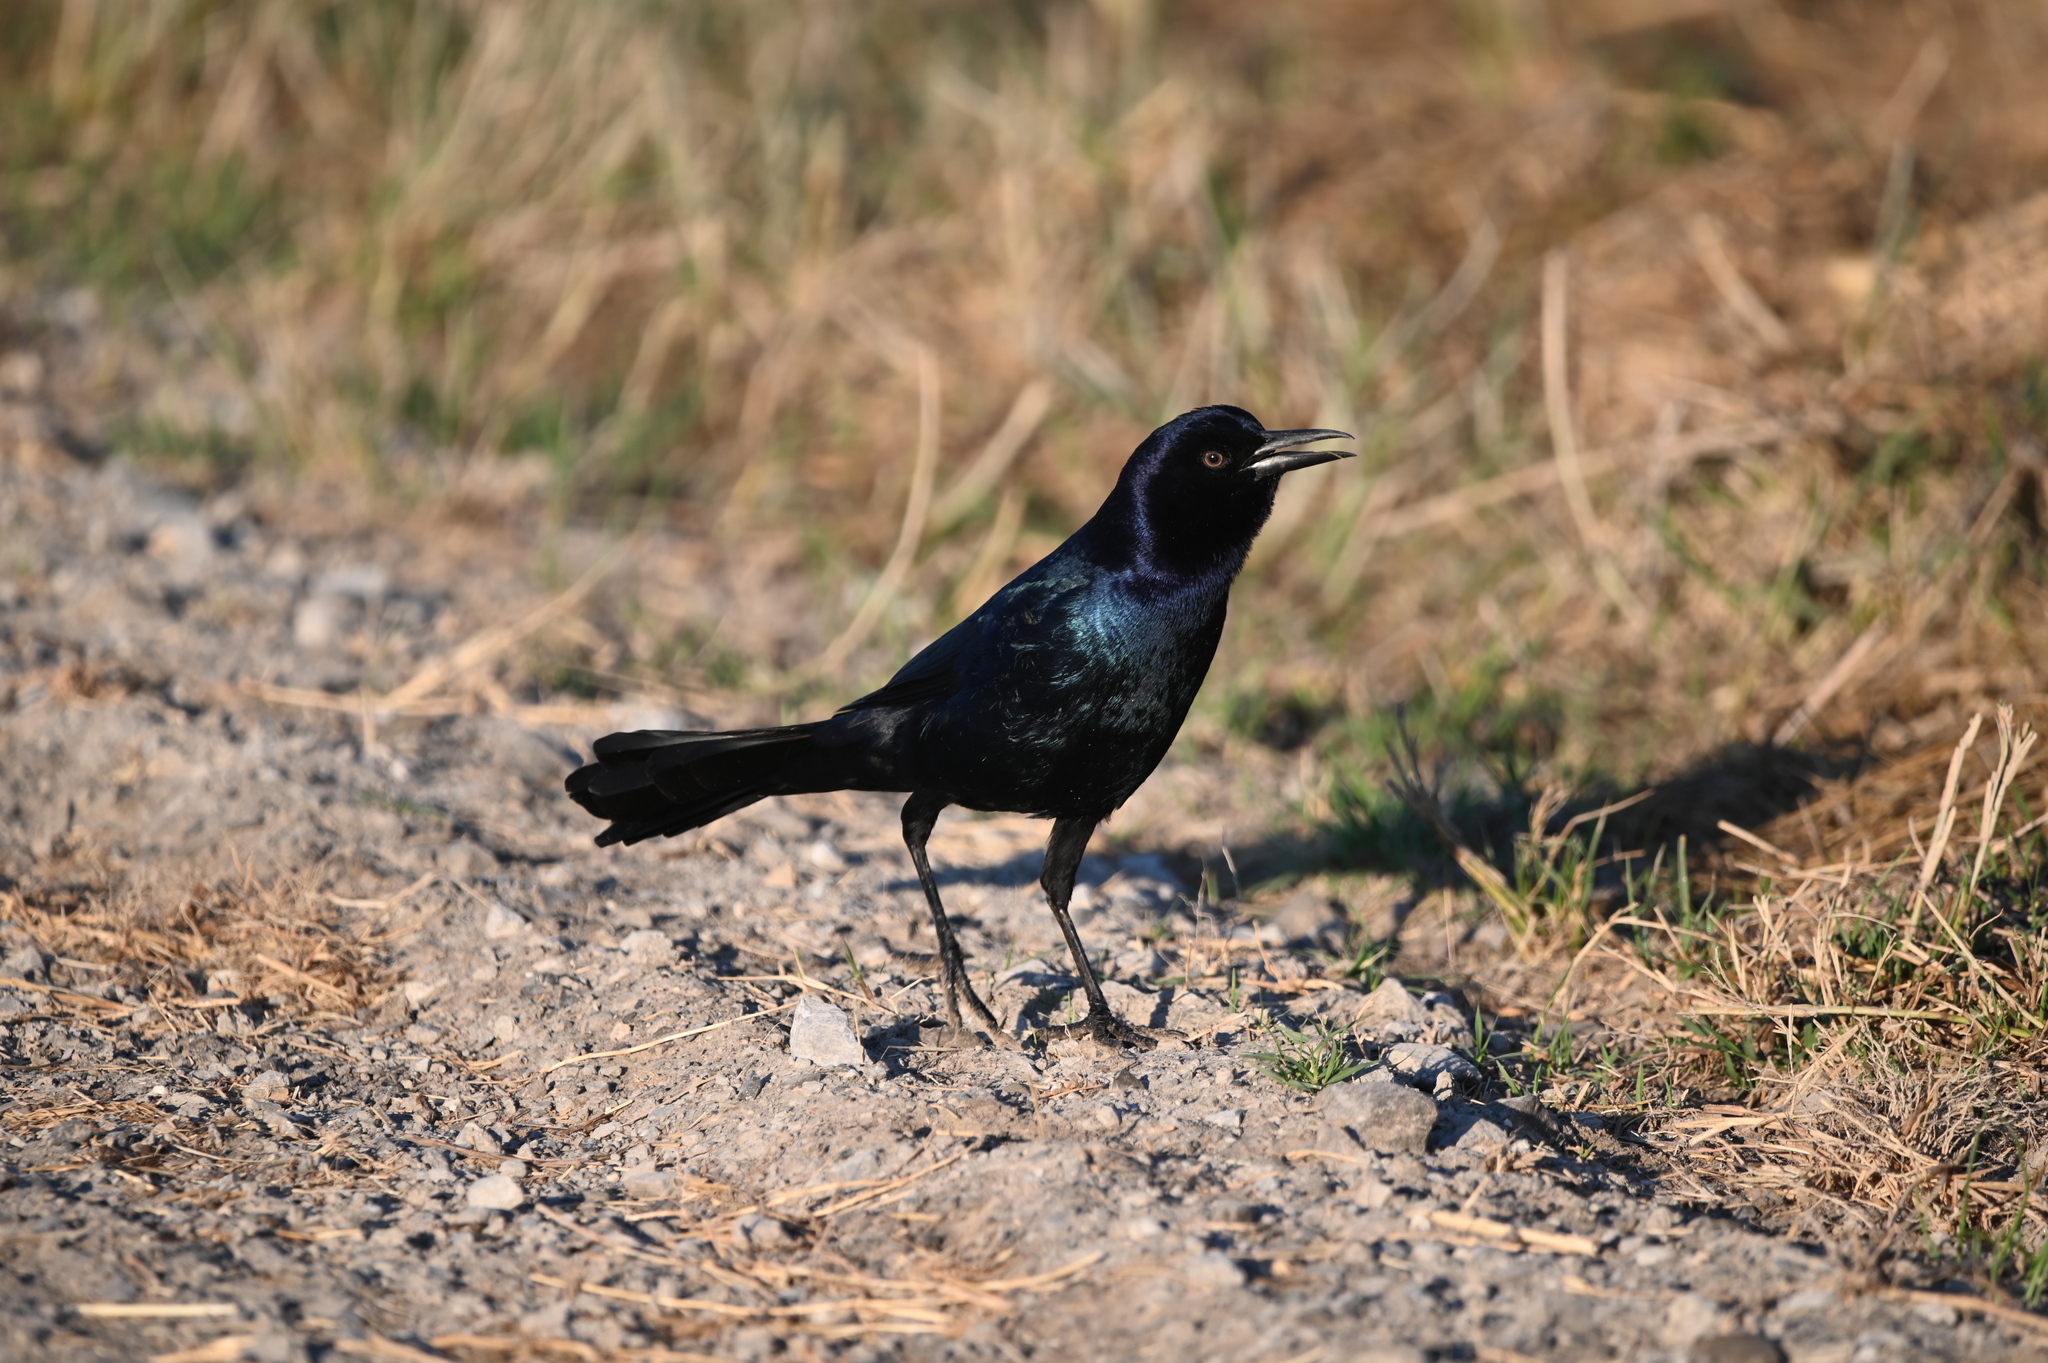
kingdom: Animalia
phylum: Chordata
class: Aves
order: Passeriformes
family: Icteridae
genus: Quiscalus
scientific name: Quiscalus major
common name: Boat-tailed grackle
